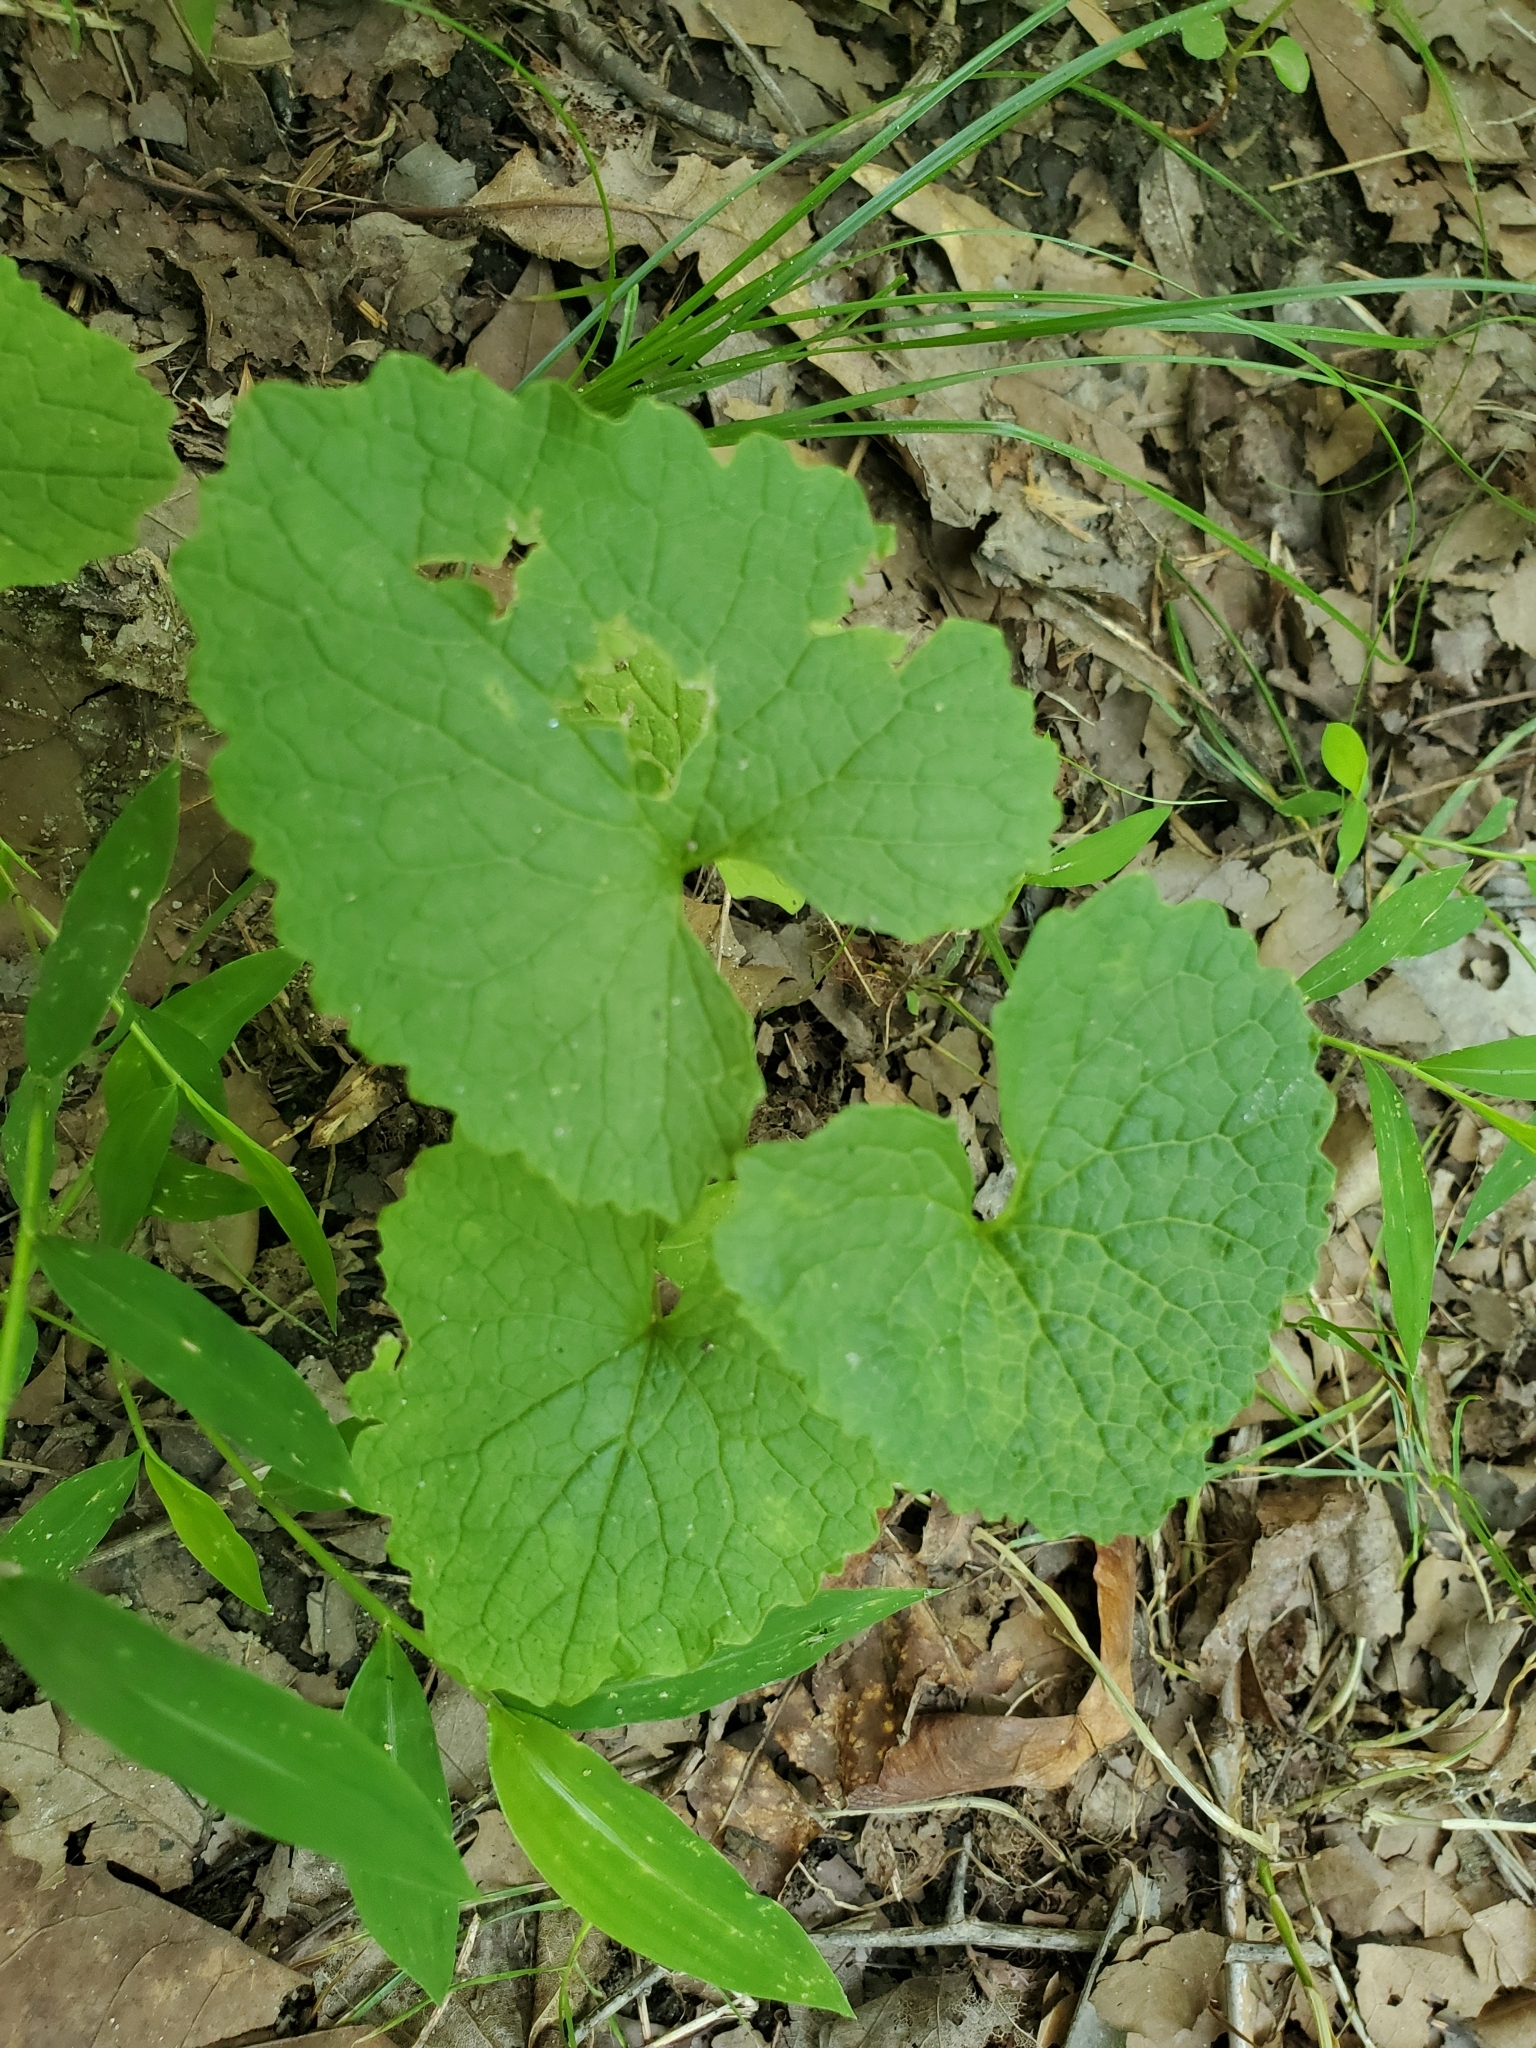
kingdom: Plantae
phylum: Tracheophyta
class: Magnoliopsida
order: Brassicales
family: Brassicaceae
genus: Alliaria
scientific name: Alliaria petiolata
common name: Garlic mustard
